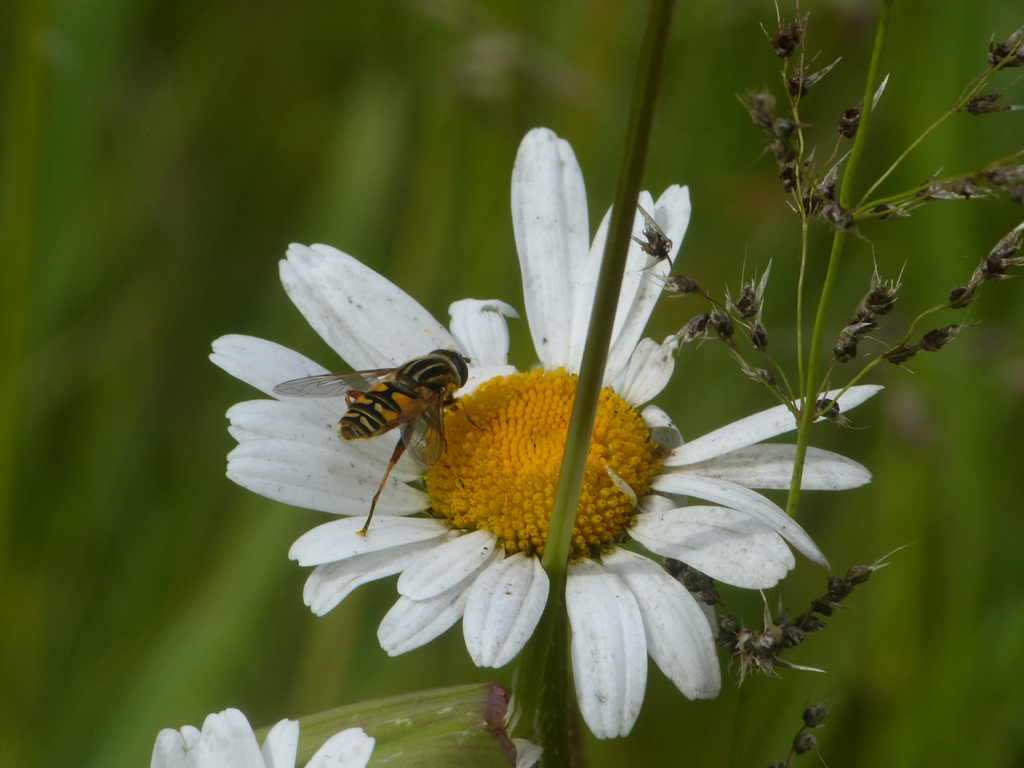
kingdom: Animalia
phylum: Arthropoda
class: Insecta
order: Diptera
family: Syrphidae
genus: Helophilus
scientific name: Helophilus pendulus
